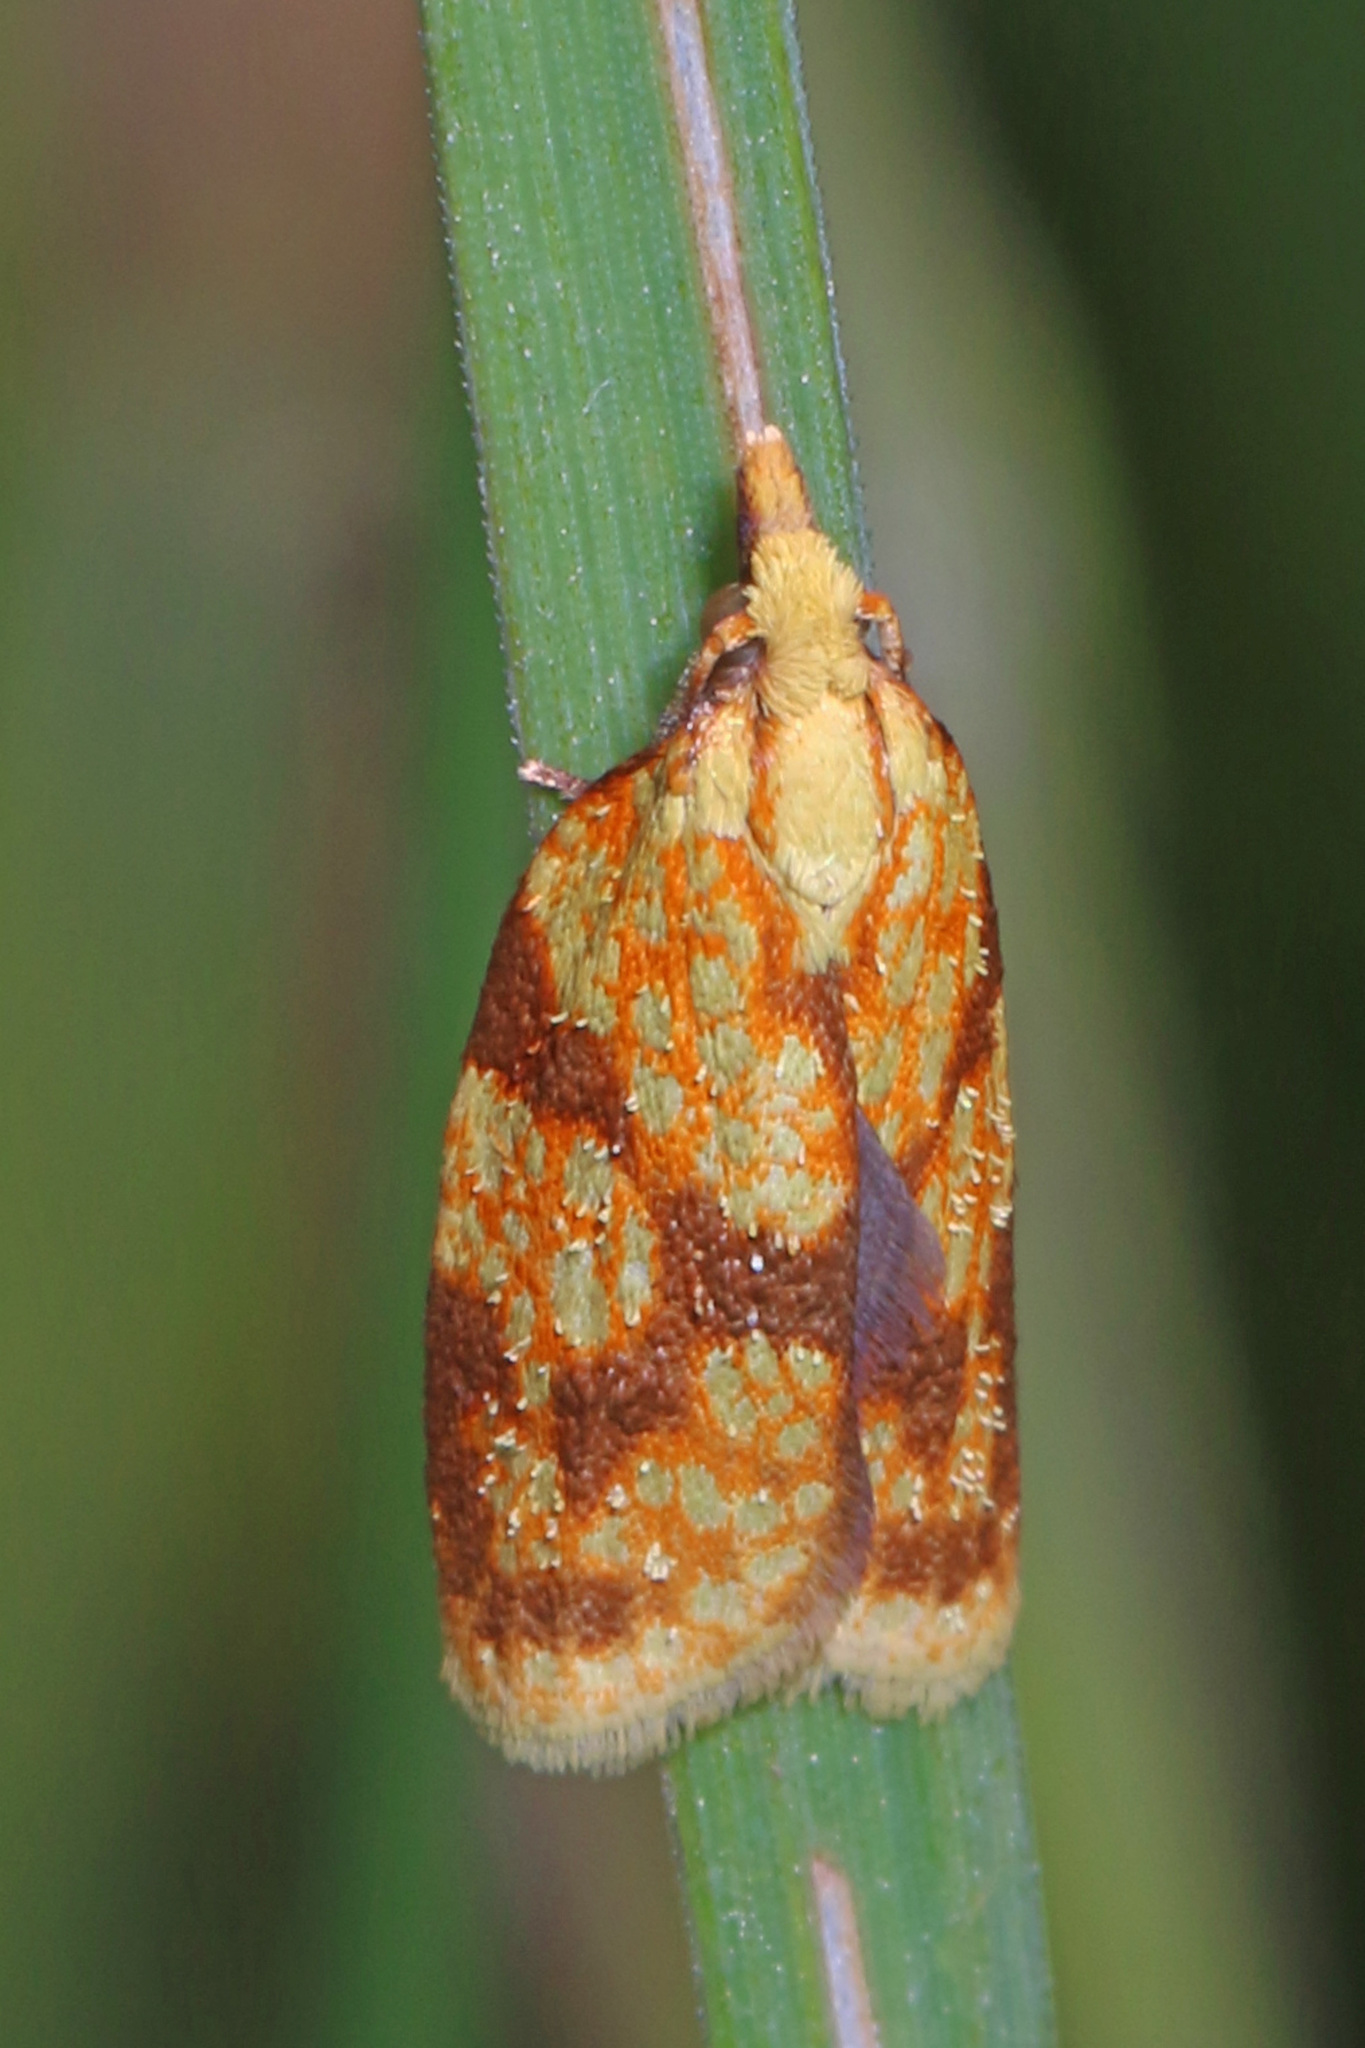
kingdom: Animalia
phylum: Arthropoda
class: Insecta
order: Lepidoptera
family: Tortricidae
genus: Sparganothis
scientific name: Sparganothis sulfureana
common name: Sparganothis fruitworm moth
